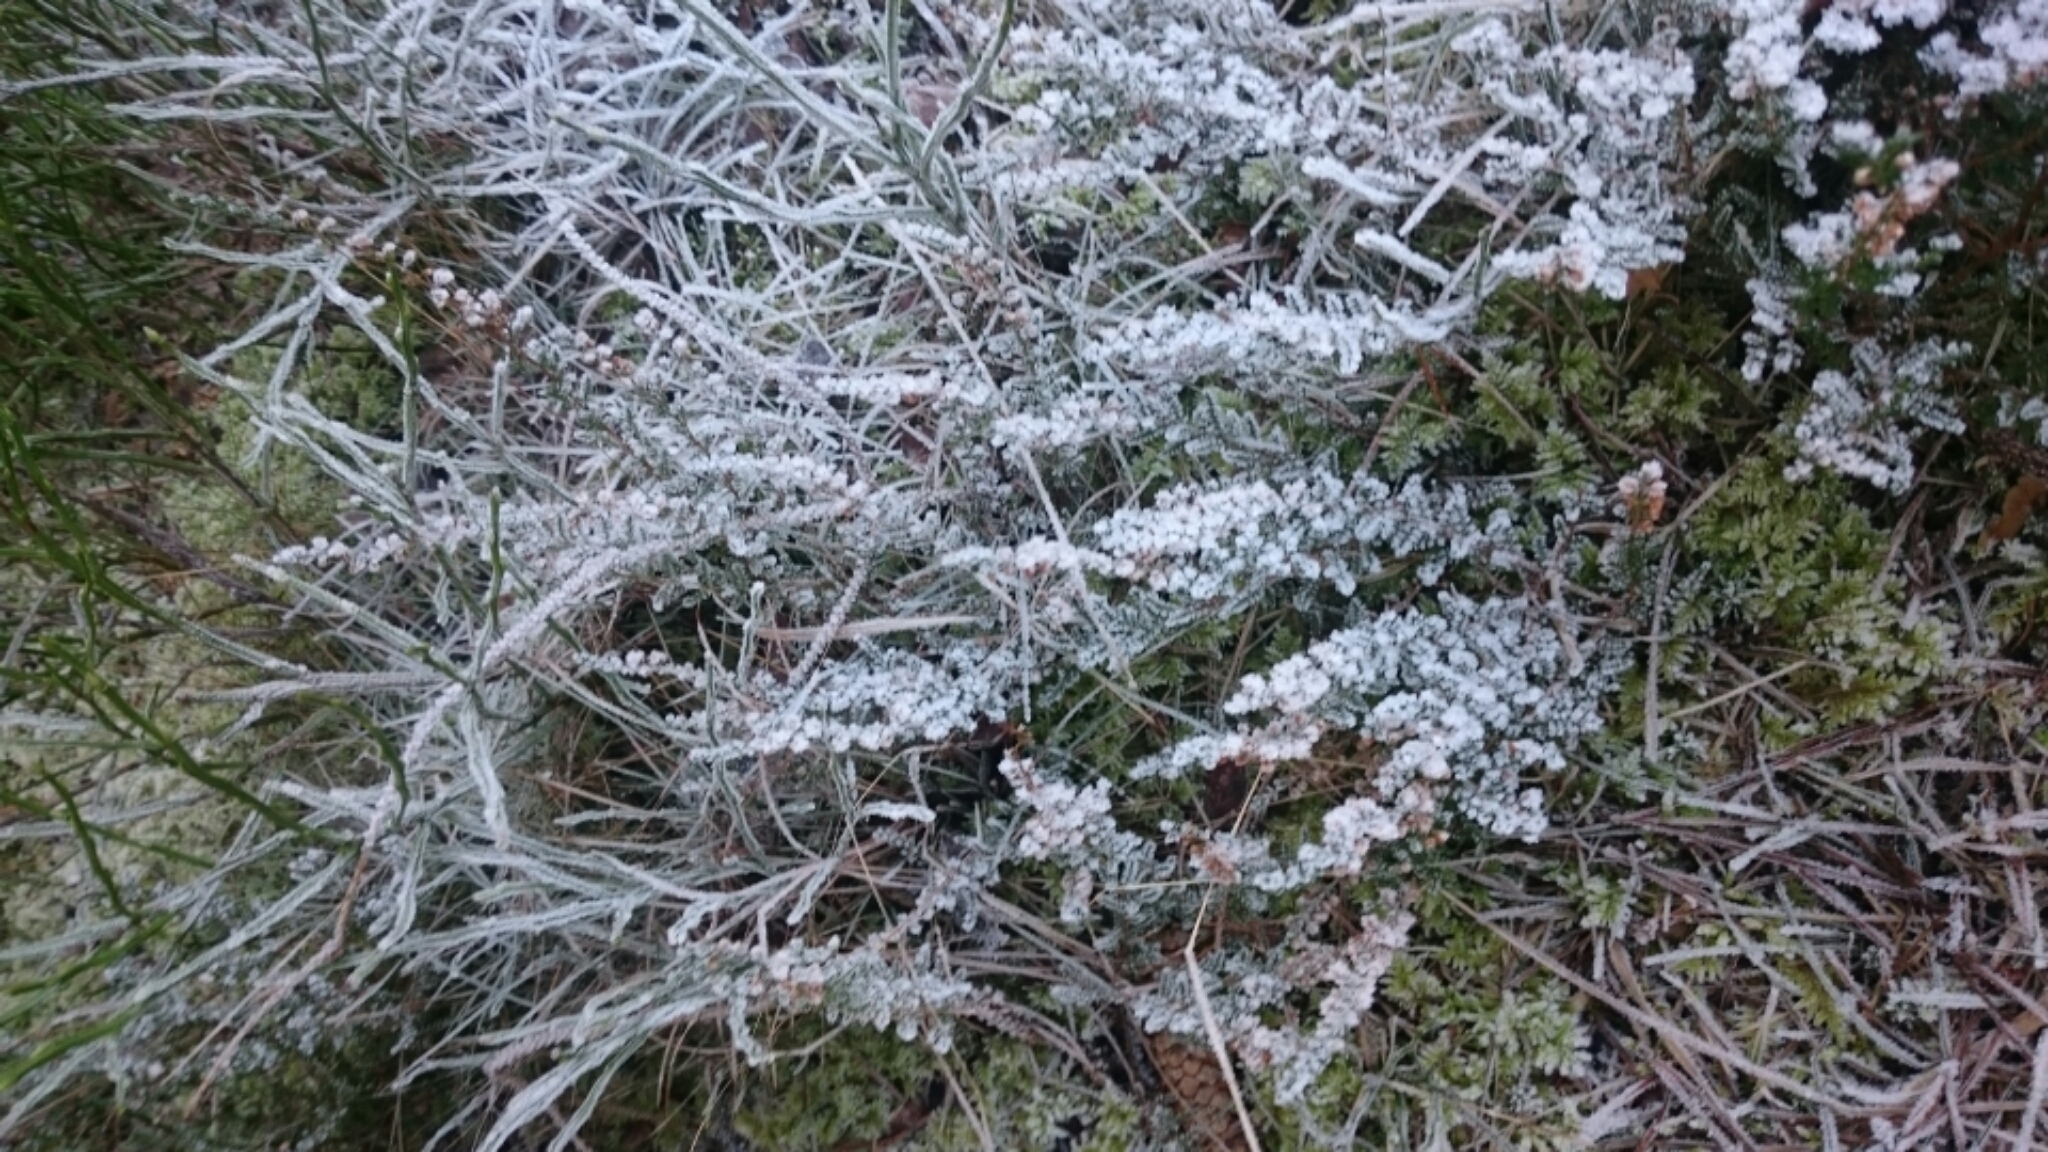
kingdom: Plantae
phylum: Tracheophyta
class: Magnoliopsida
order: Ericales
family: Ericaceae
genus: Calluna
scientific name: Calluna vulgaris
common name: Heather
